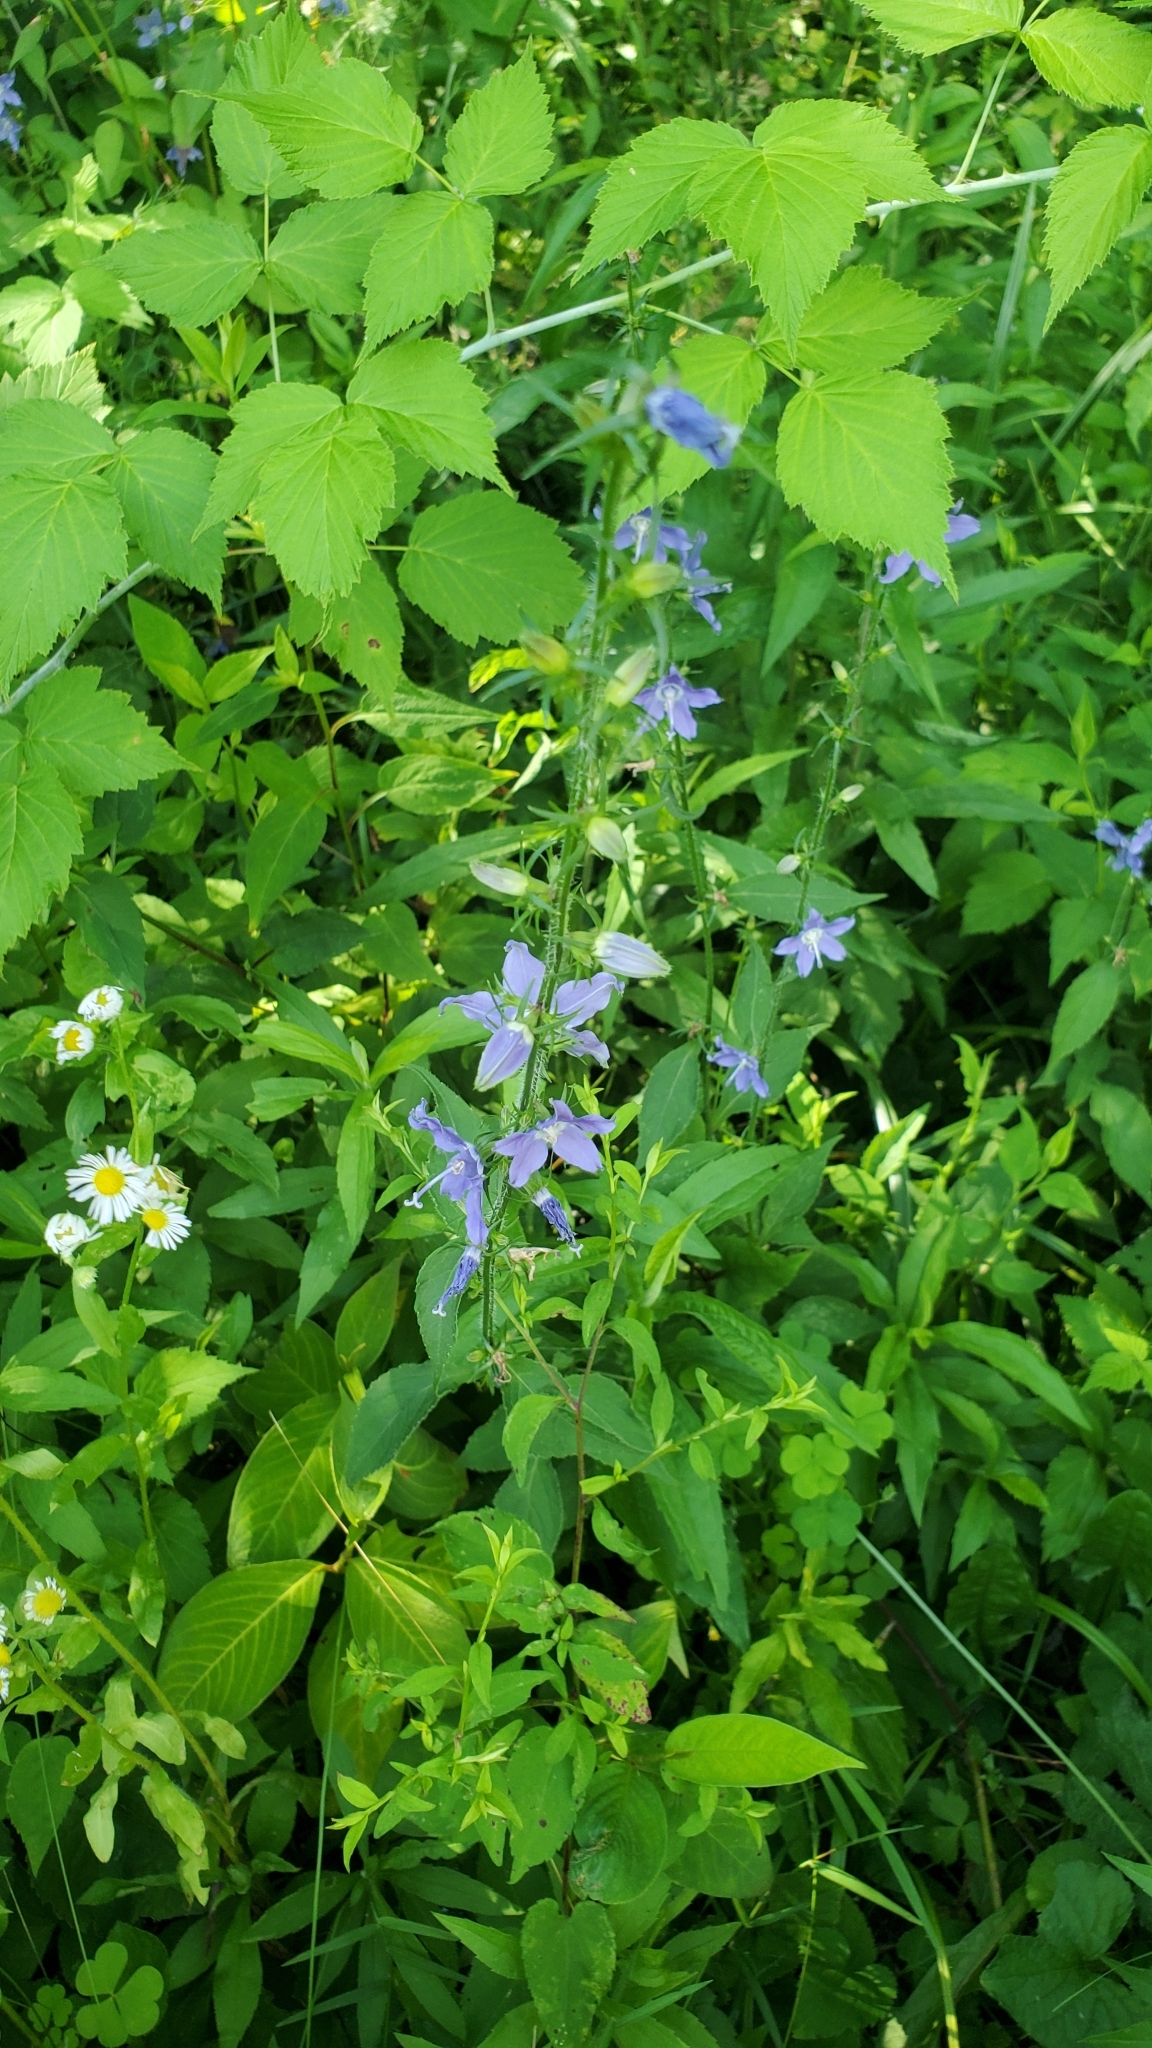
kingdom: Plantae
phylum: Tracheophyta
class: Magnoliopsida
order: Asterales
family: Campanulaceae
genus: Campanulastrum
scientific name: Campanulastrum americanum
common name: American bellflower
